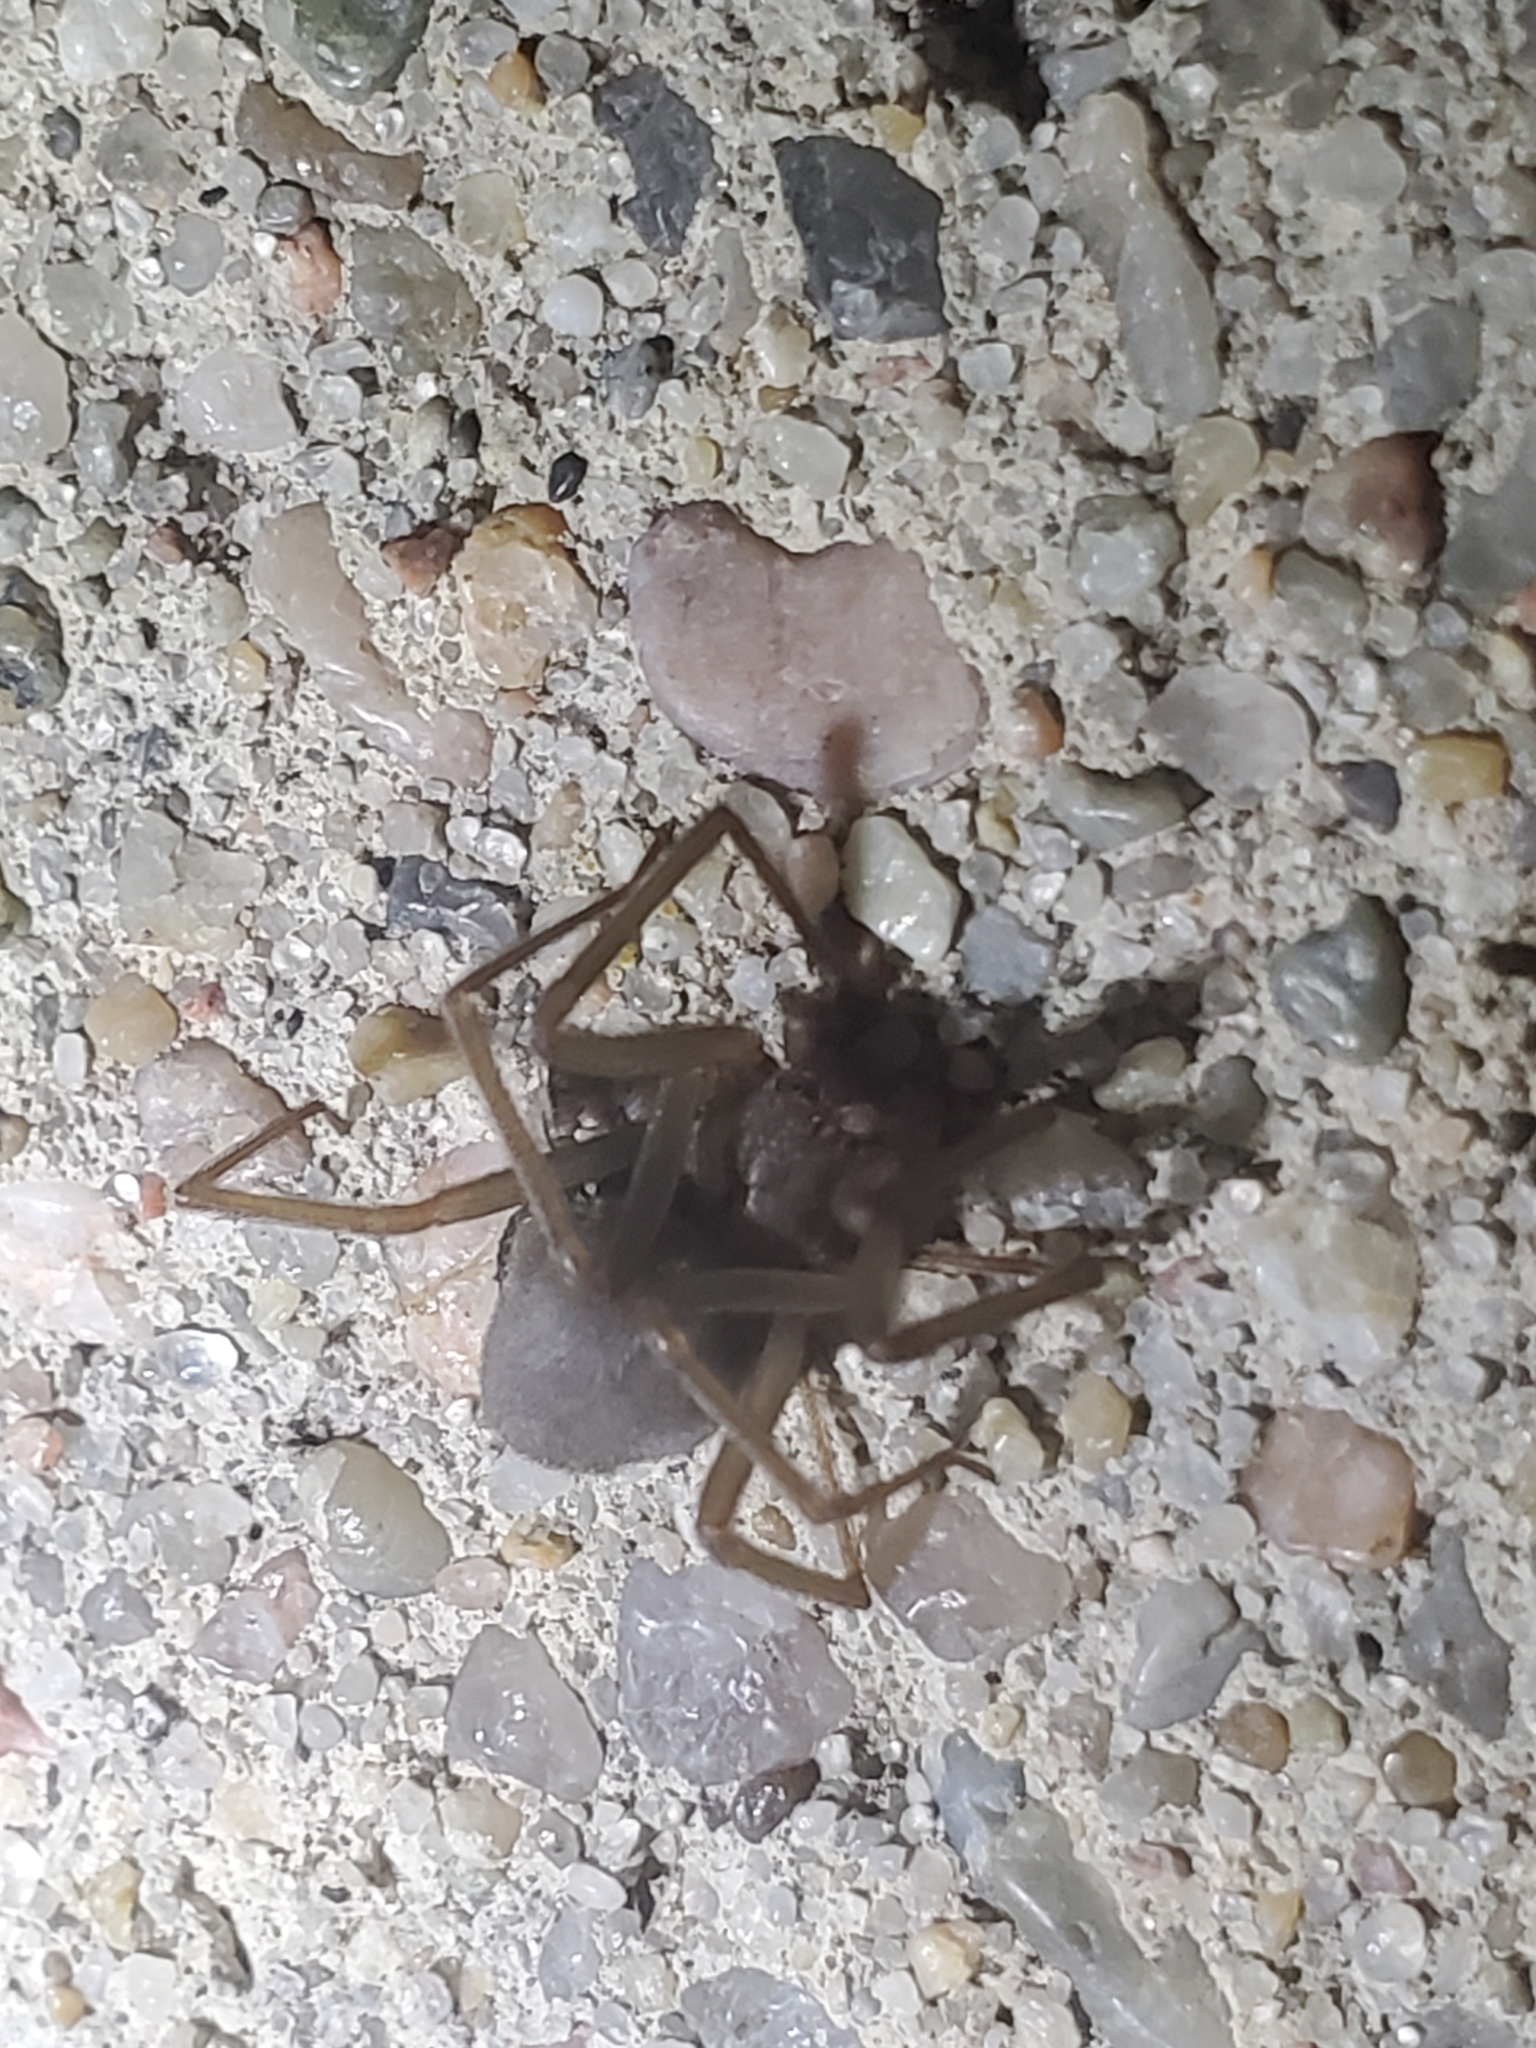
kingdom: Animalia
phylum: Arthropoda
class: Arachnida
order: Araneae
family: Sicariidae
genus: Loxosceles
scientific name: Loxosceles reclusa
